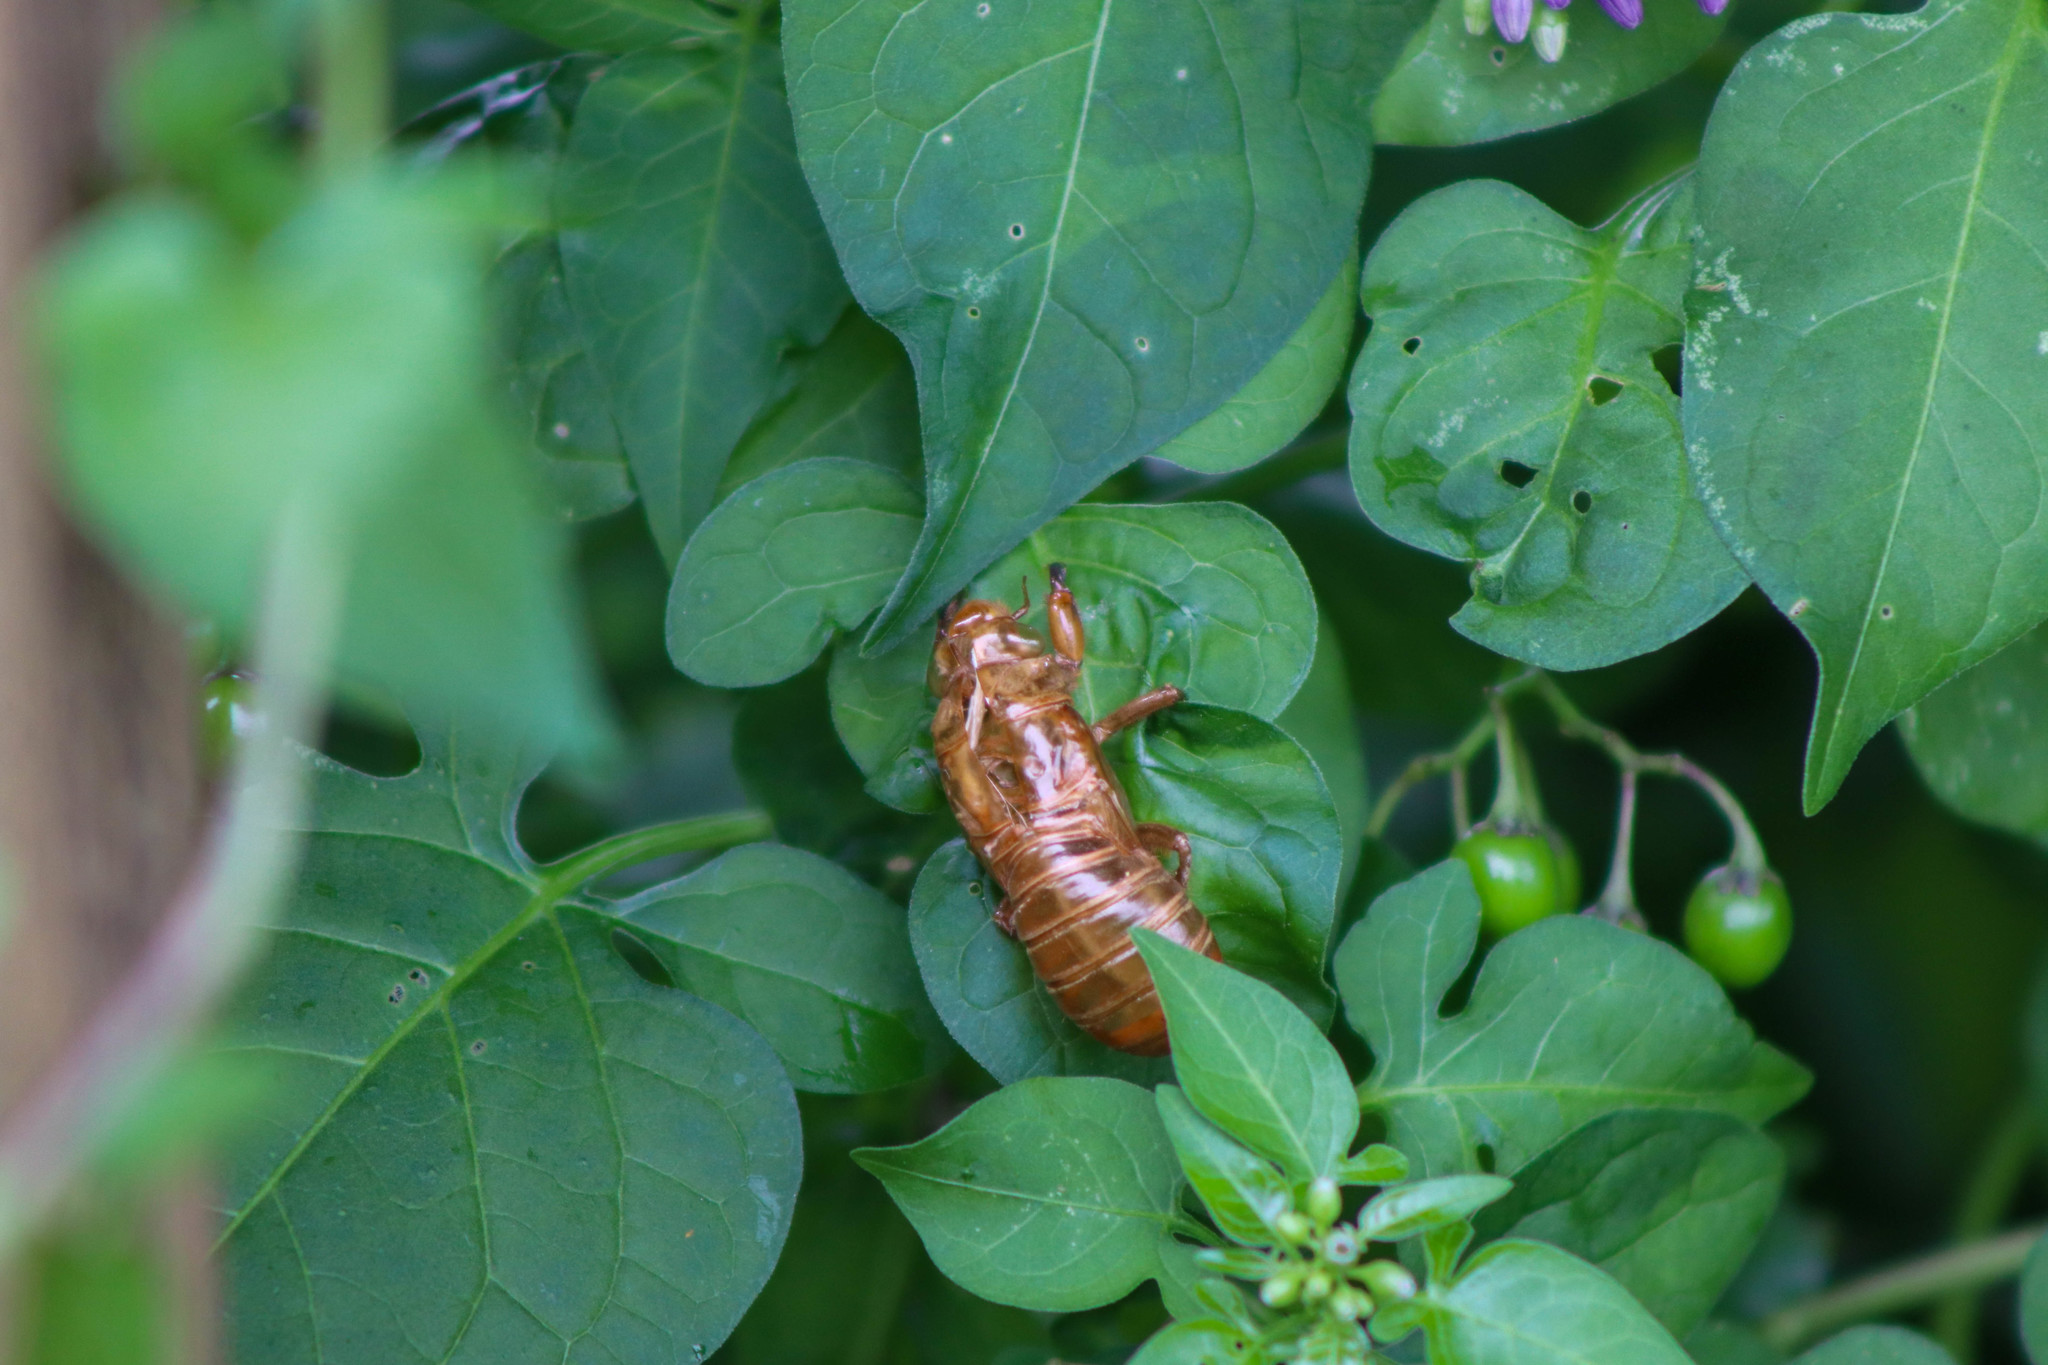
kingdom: Animalia
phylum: Arthropoda
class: Insecta
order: Hemiptera
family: Cicadidae
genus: Magicicada
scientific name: Magicicada
